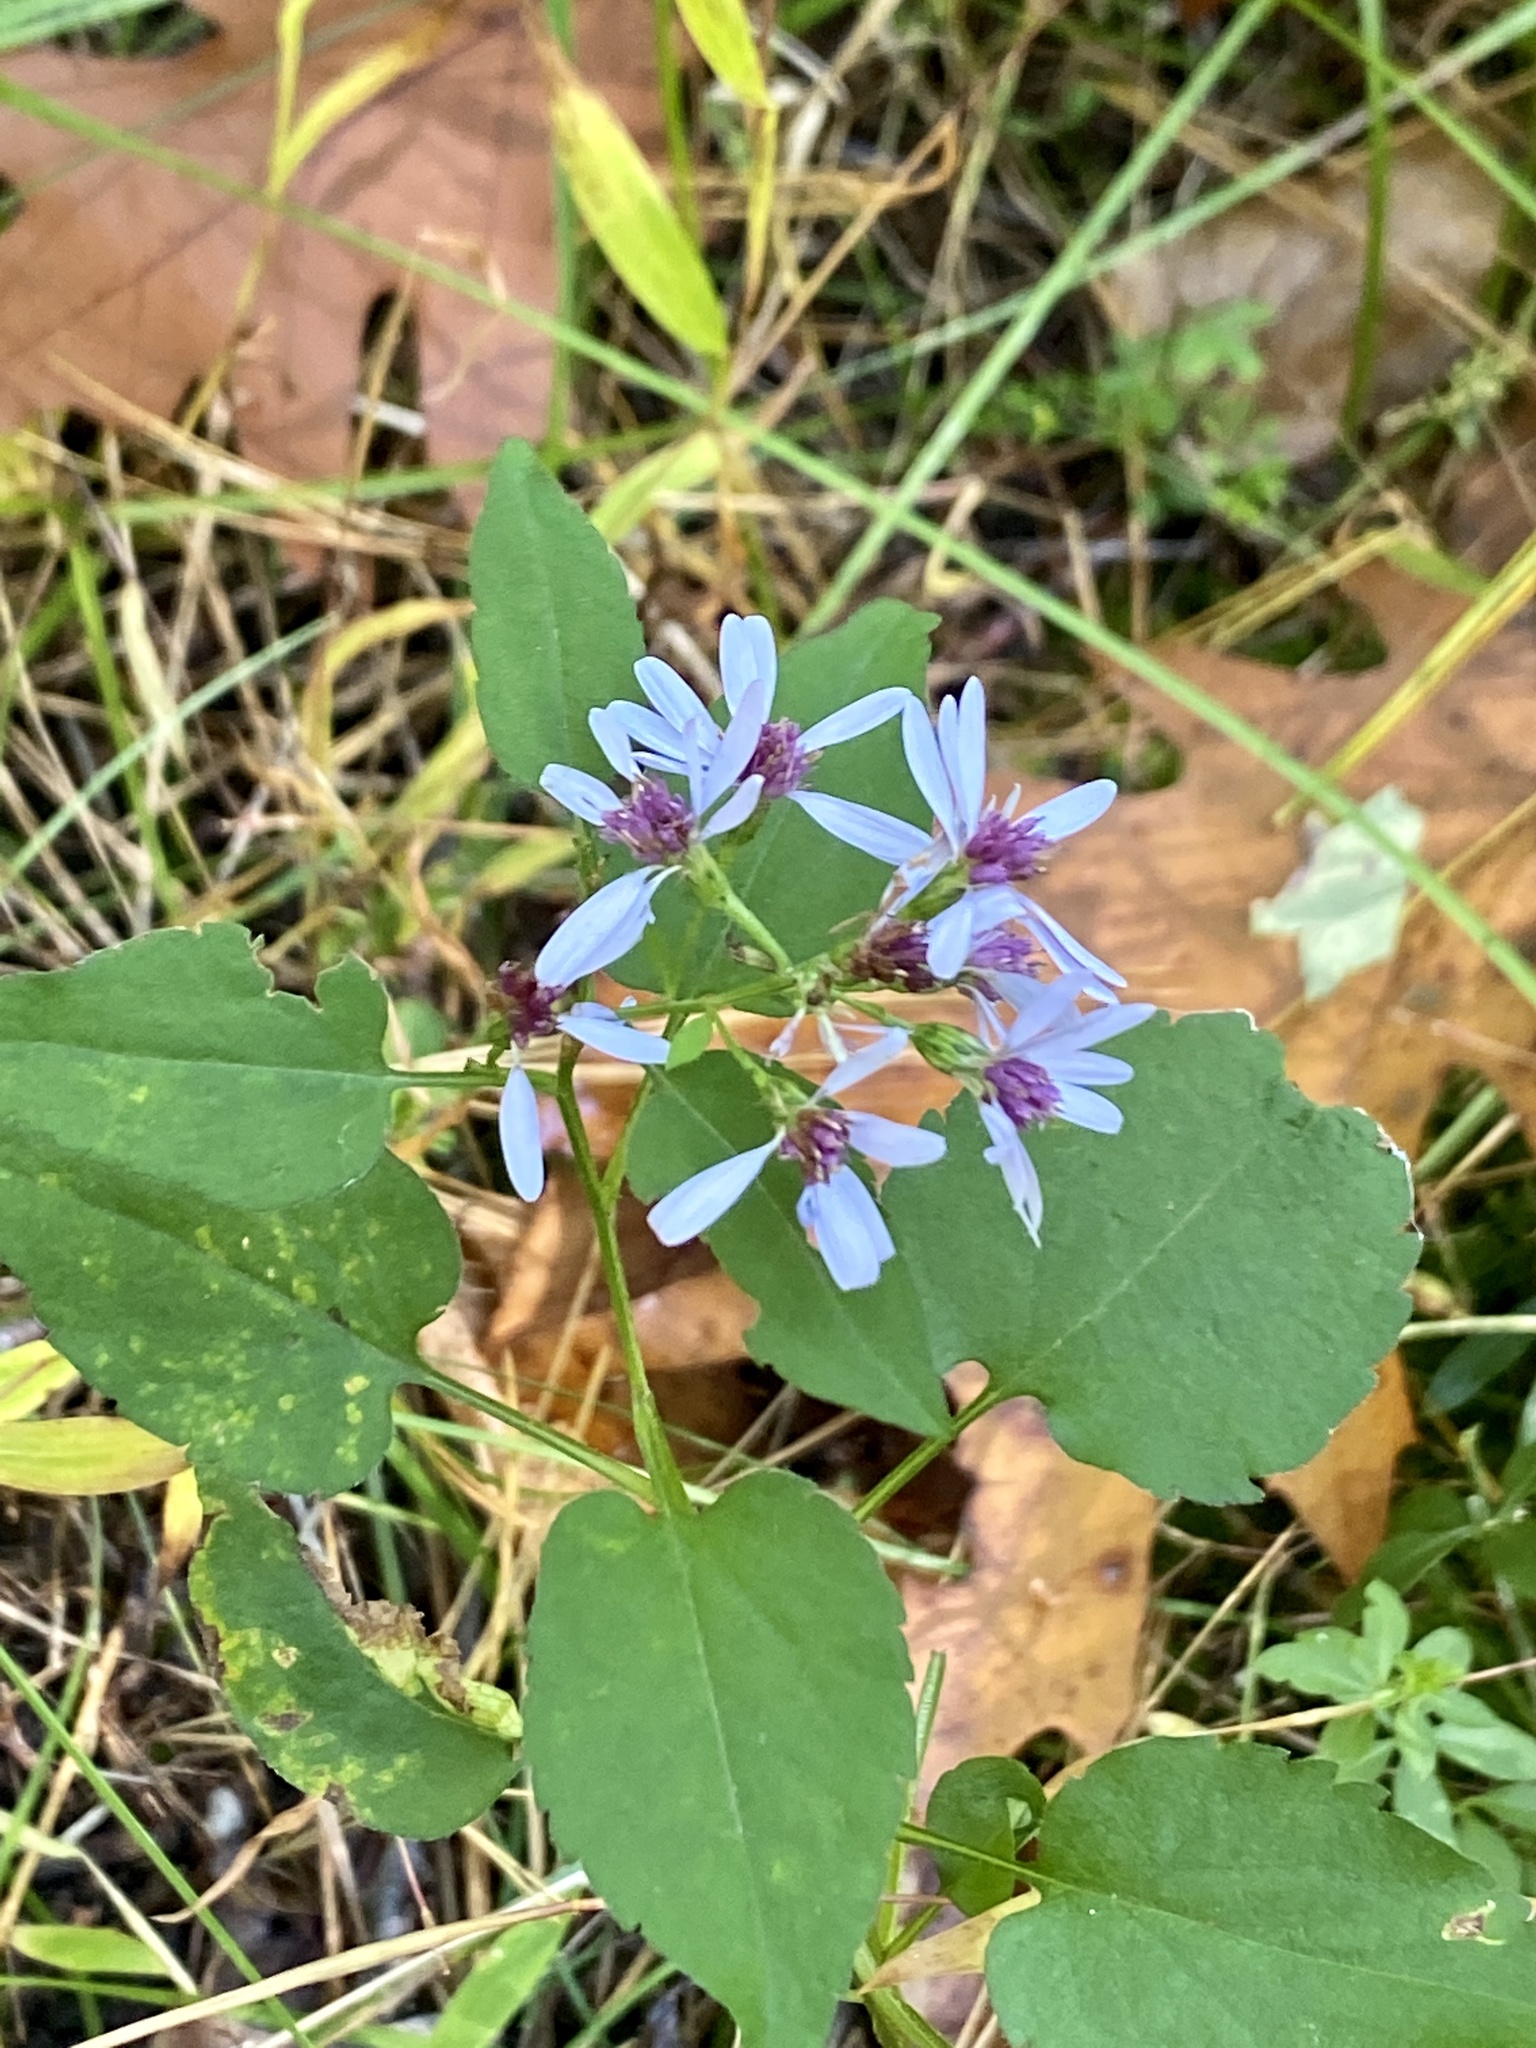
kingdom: Plantae
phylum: Tracheophyta
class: Magnoliopsida
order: Asterales
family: Asteraceae
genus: Symphyotrichum
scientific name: Symphyotrichum cordifolium
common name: Beeweed
